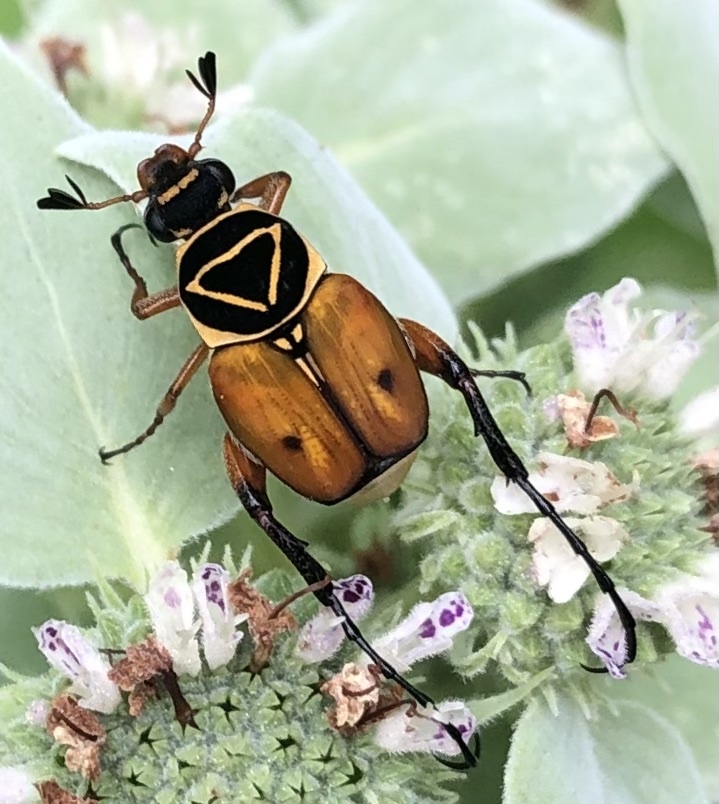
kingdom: Animalia
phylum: Arthropoda
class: Insecta
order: Coleoptera
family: Scarabaeidae
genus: Trigonopeltastes
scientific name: Trigonopeltastes delta
